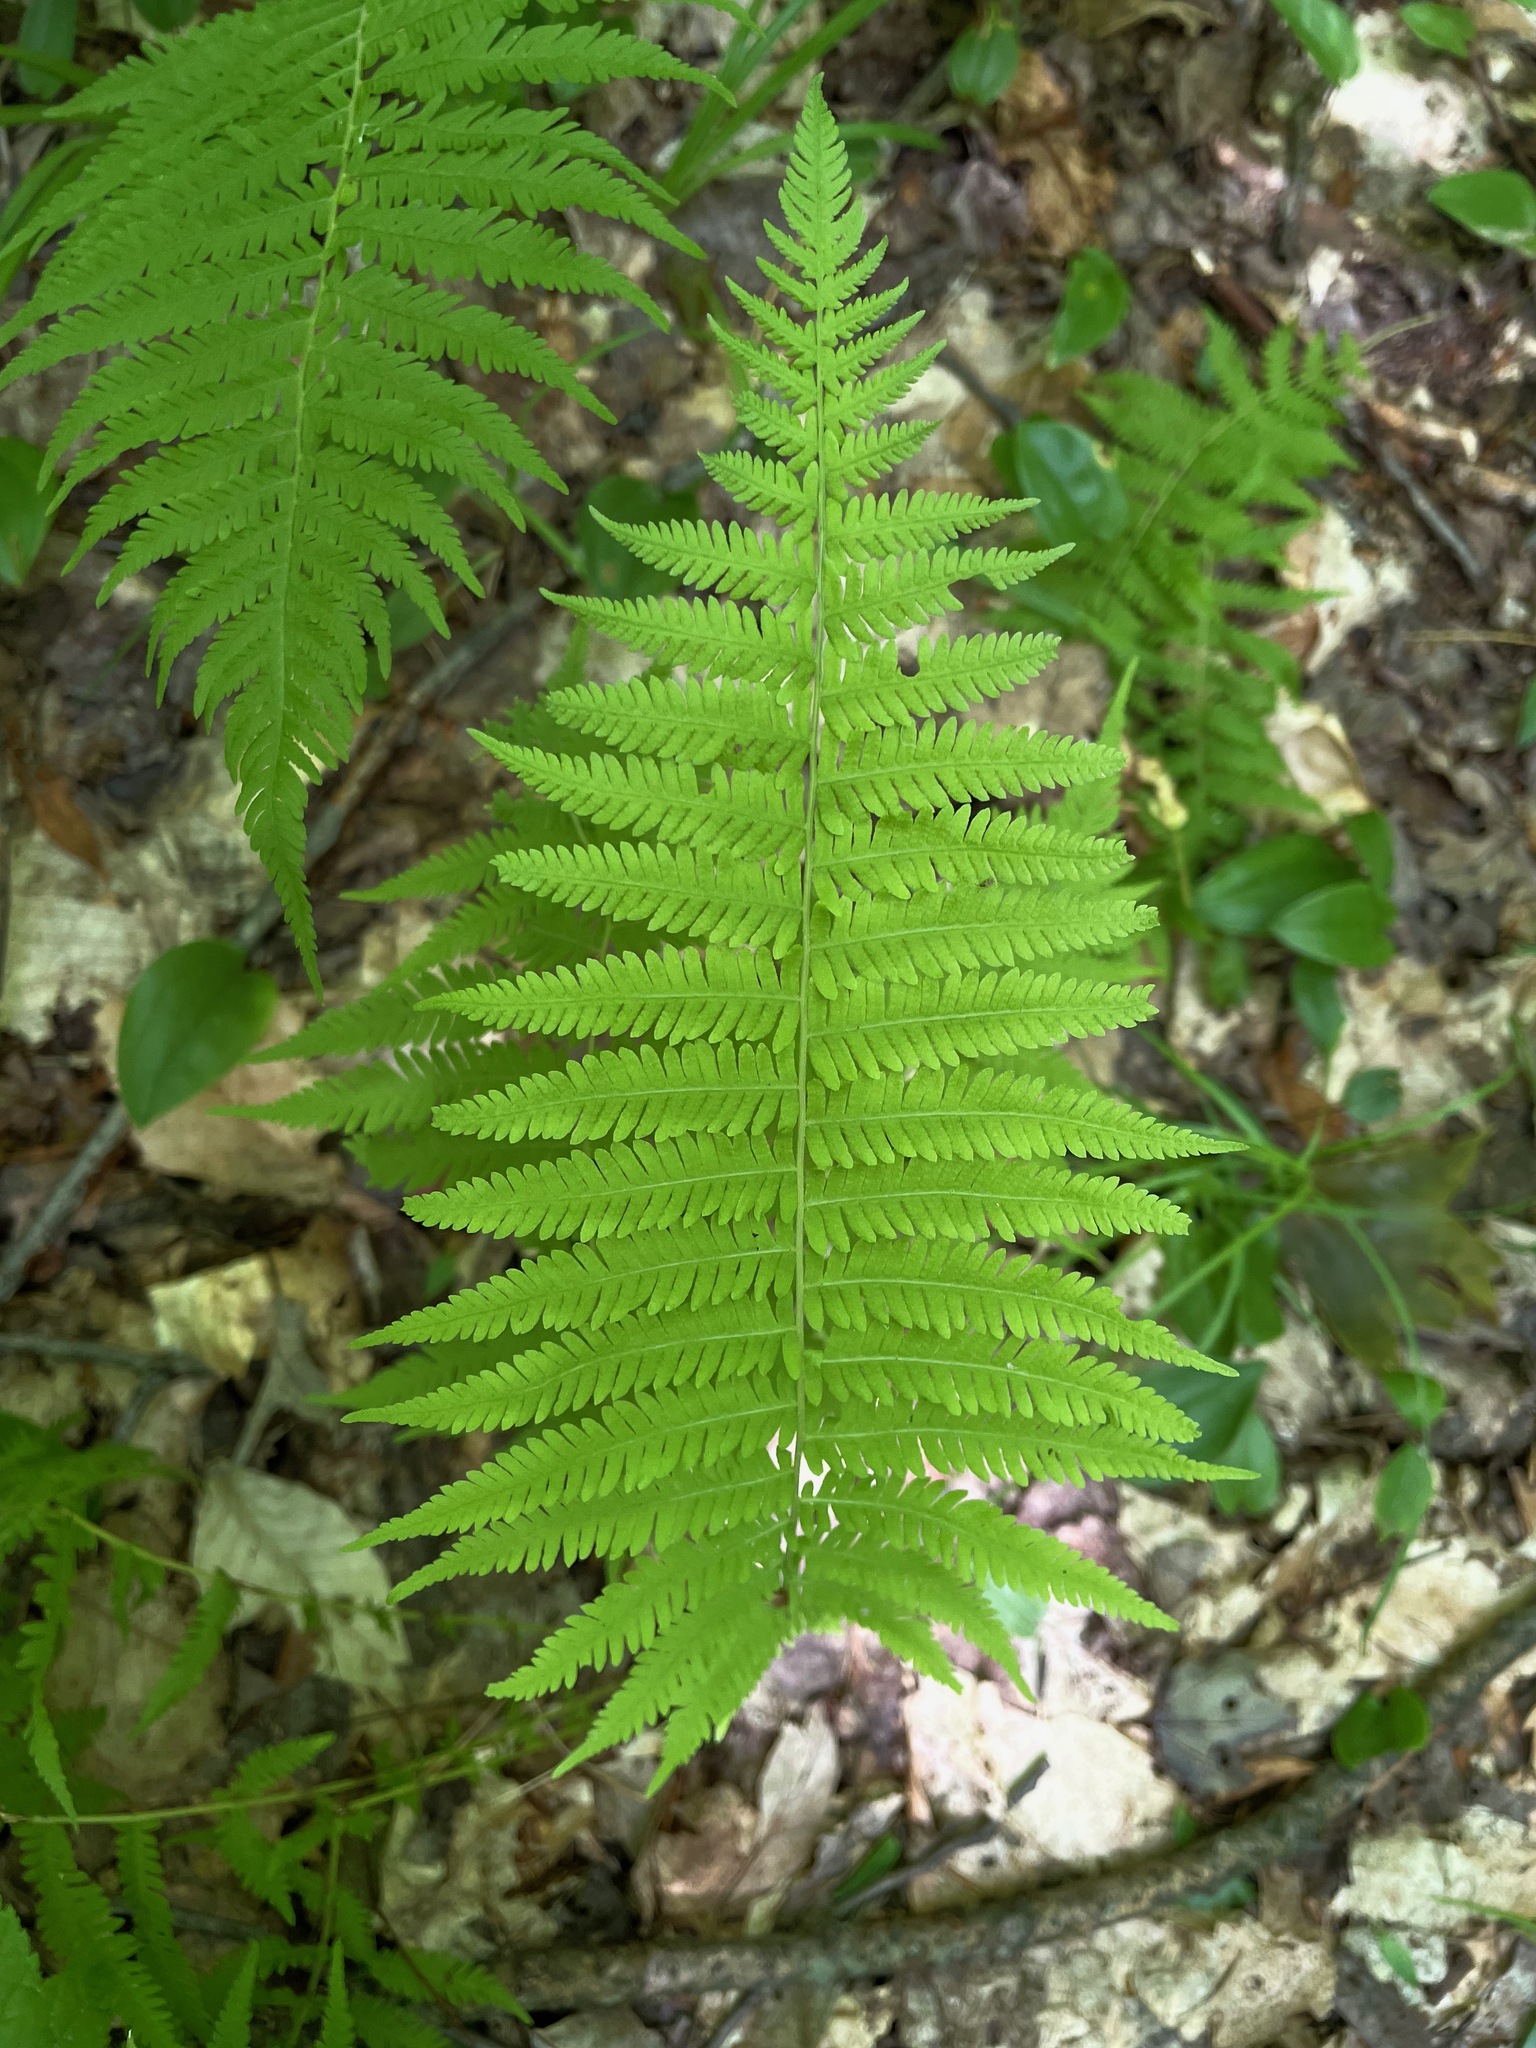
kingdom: Plantae
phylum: Tracheophyta
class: Polypodiopsida
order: Polypodiales
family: Thelypteridaceae
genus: Amauropelta
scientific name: Amauropelta noveboracensis
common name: New york fern
